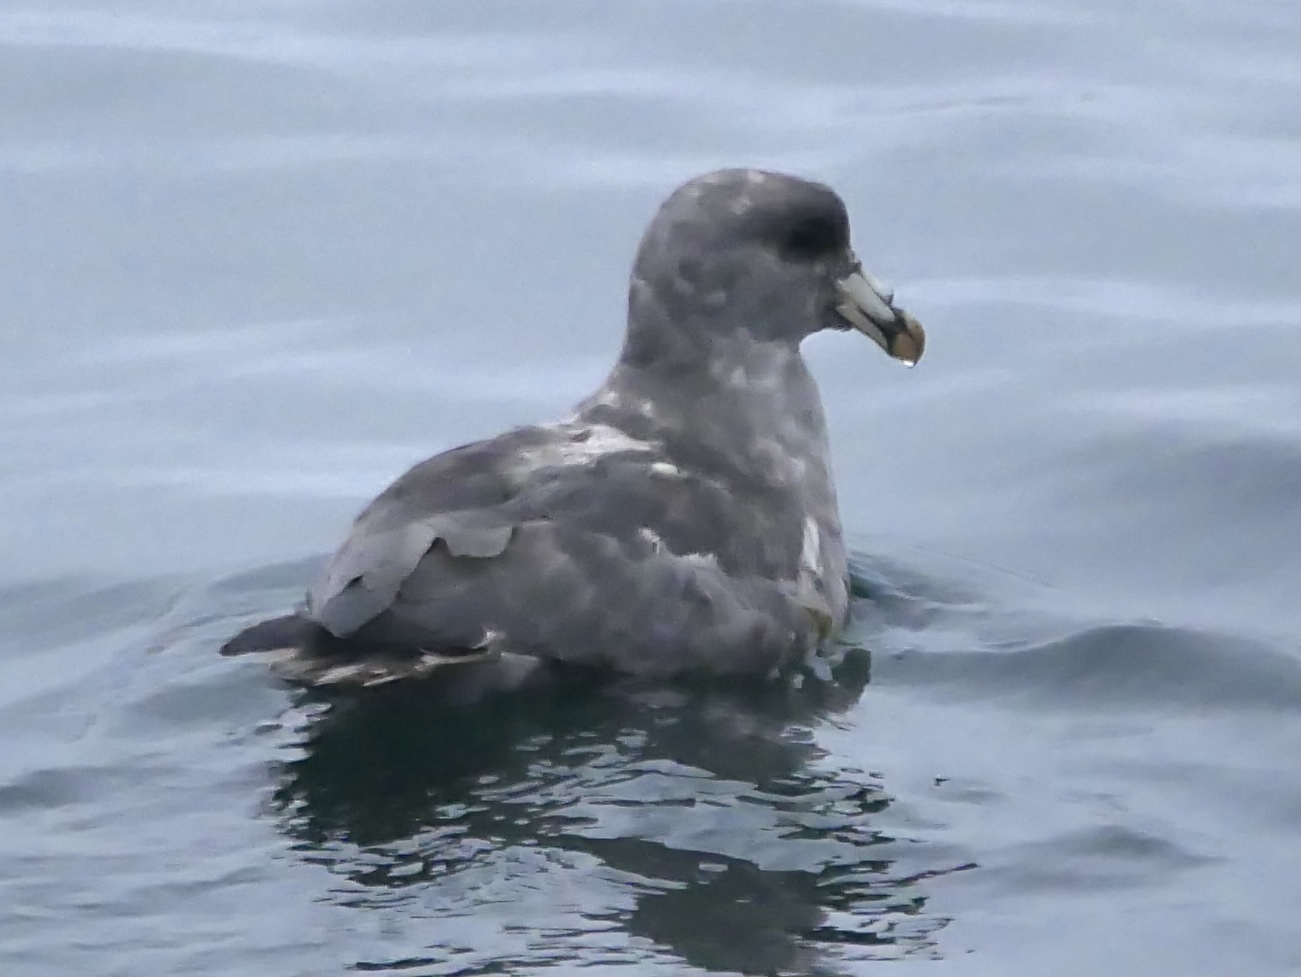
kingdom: Animalia
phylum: Chordata
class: Aves
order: Procellariiformes
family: Procellariidae
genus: Fulmarus
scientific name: Fulmarus glacialis
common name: Northern fulmar
